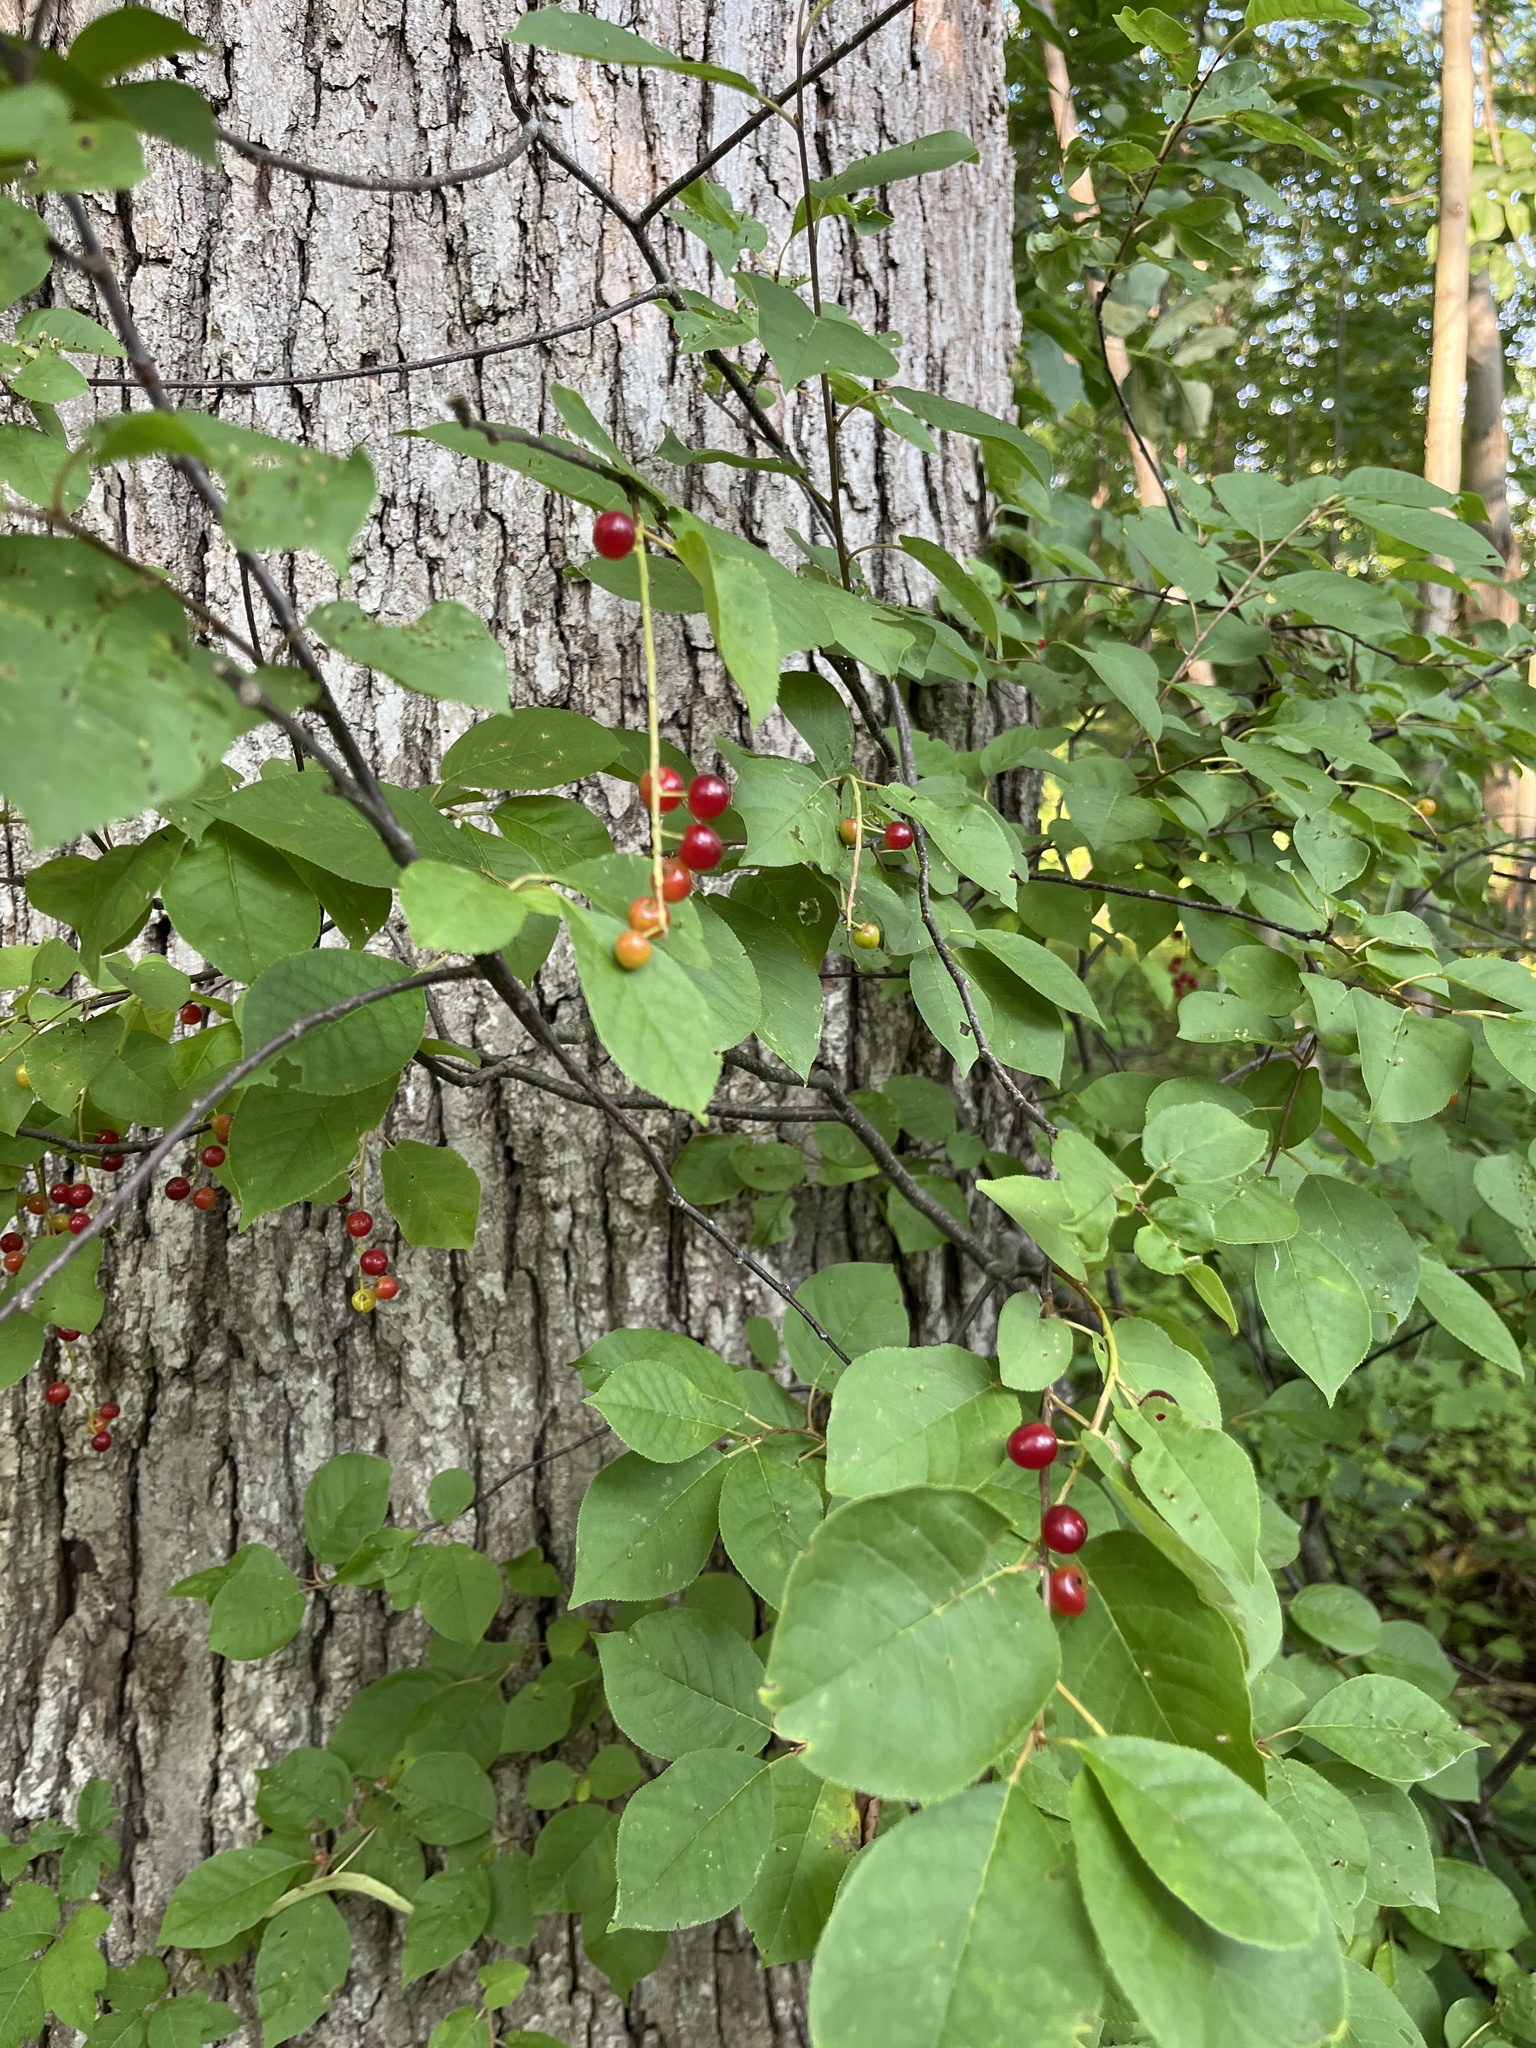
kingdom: Plantae
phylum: Tracheophyta
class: Magnoliopsida
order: Rosales
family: Rosaceae
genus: Prunus
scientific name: Prunus virginiana
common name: Chokecherry
